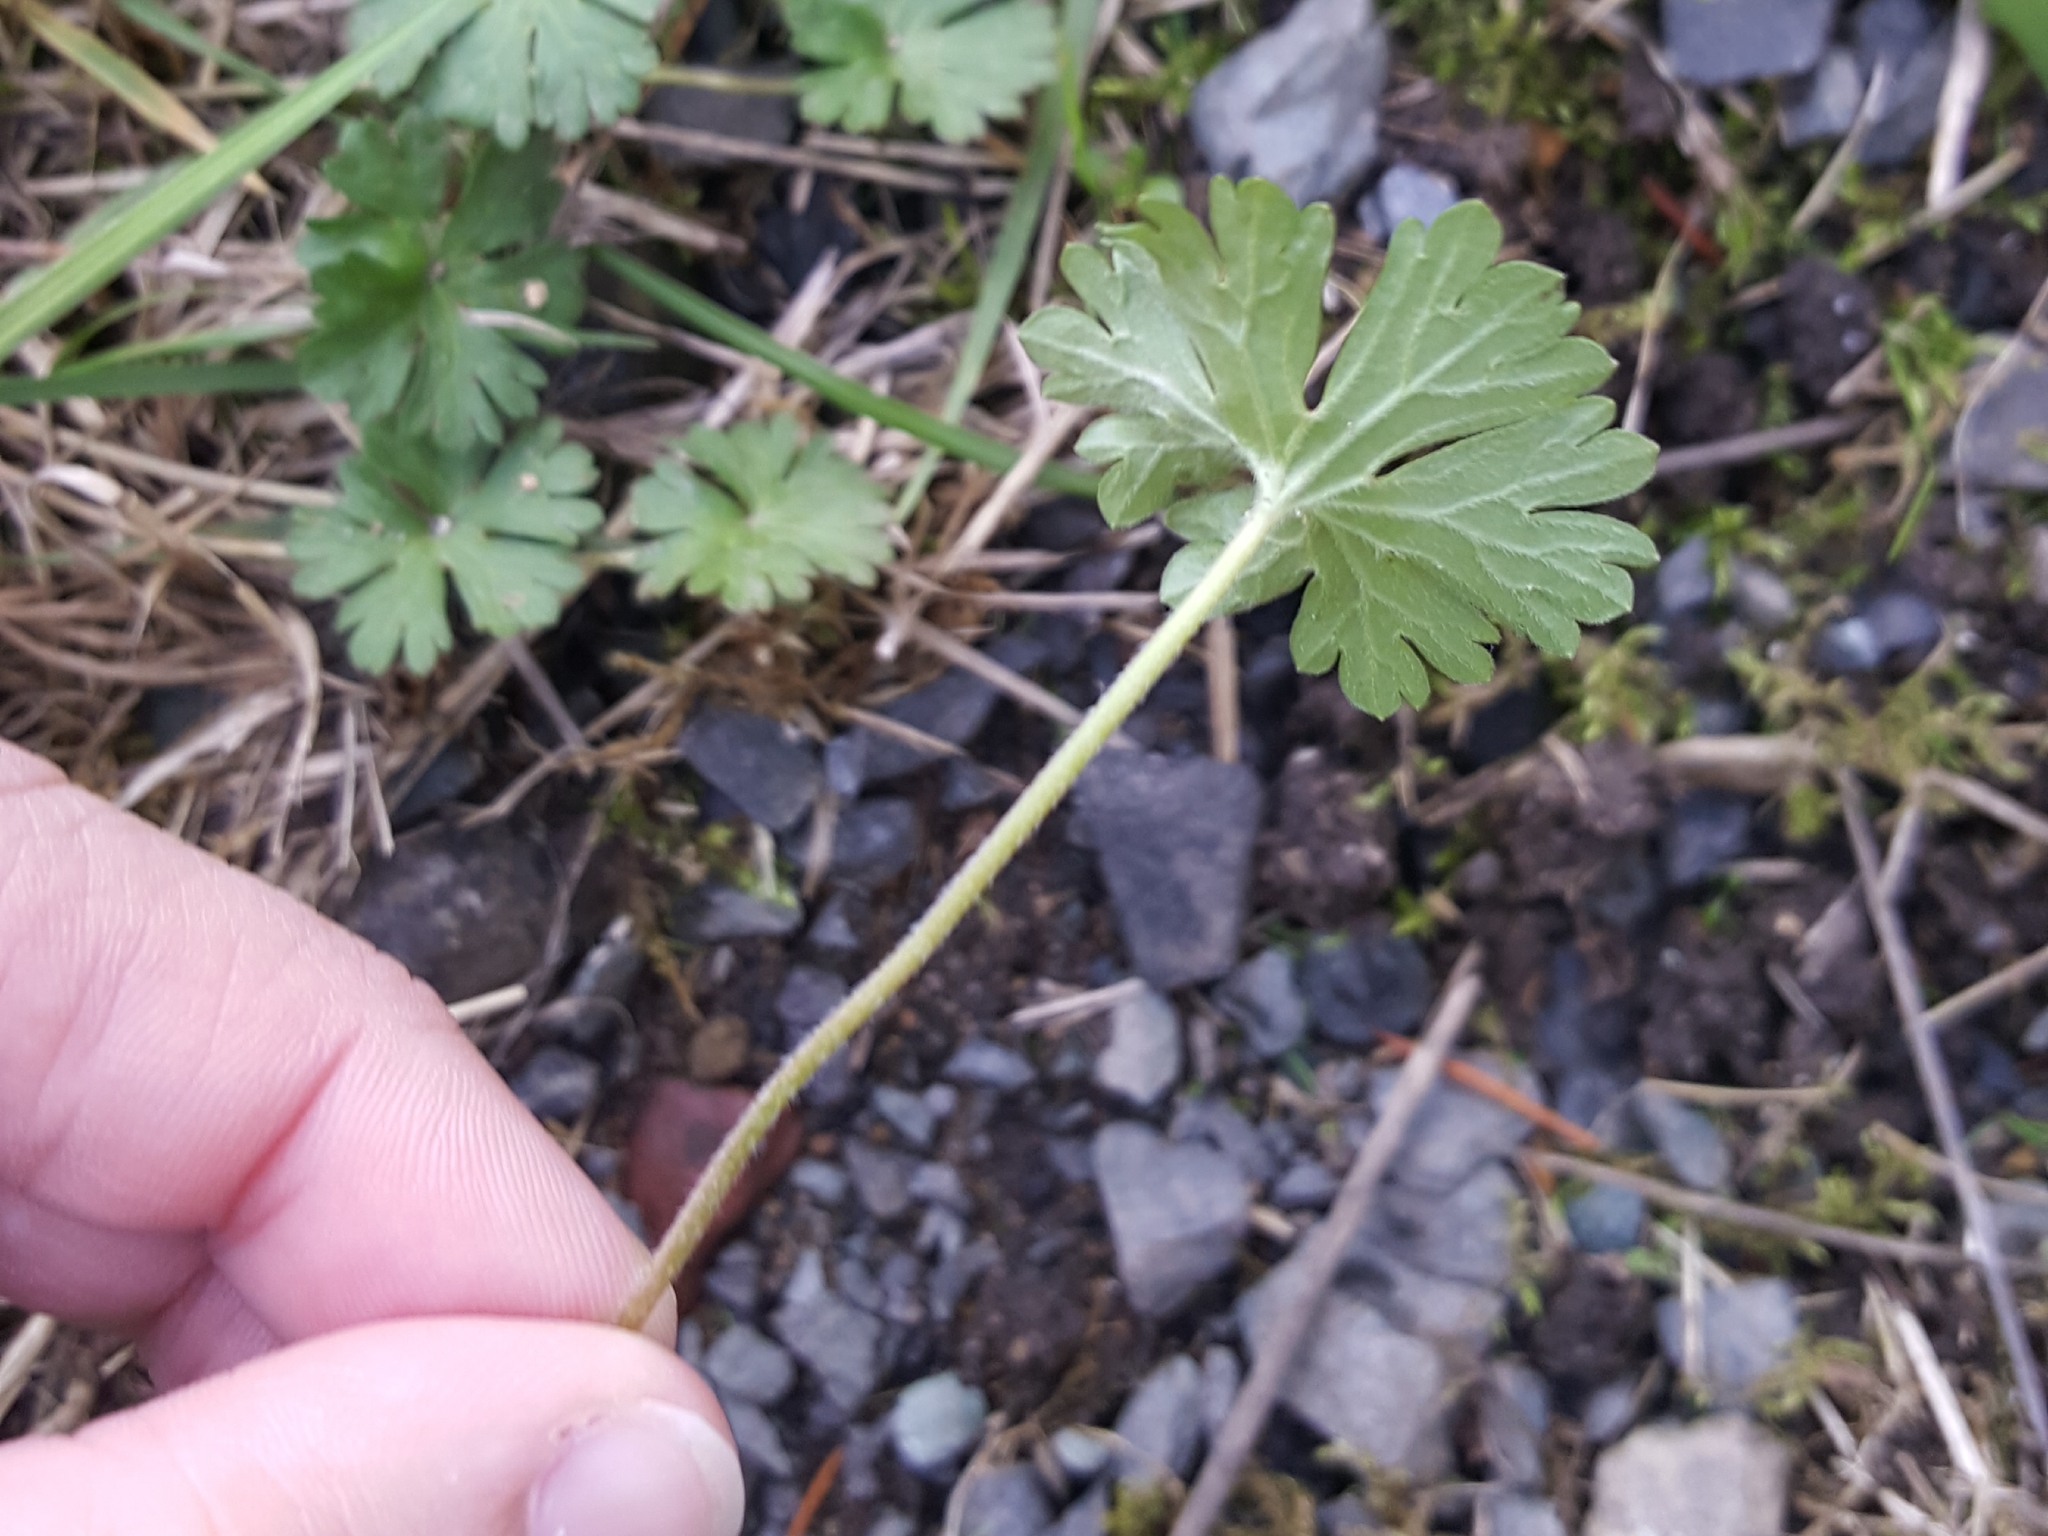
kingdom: Plantae
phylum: Tracheophyta
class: Magnoliopsida
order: Geraniales
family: Geraniaceae
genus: Geranium
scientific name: Geranium dissectum
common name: Cut-leaved crane's-bill
